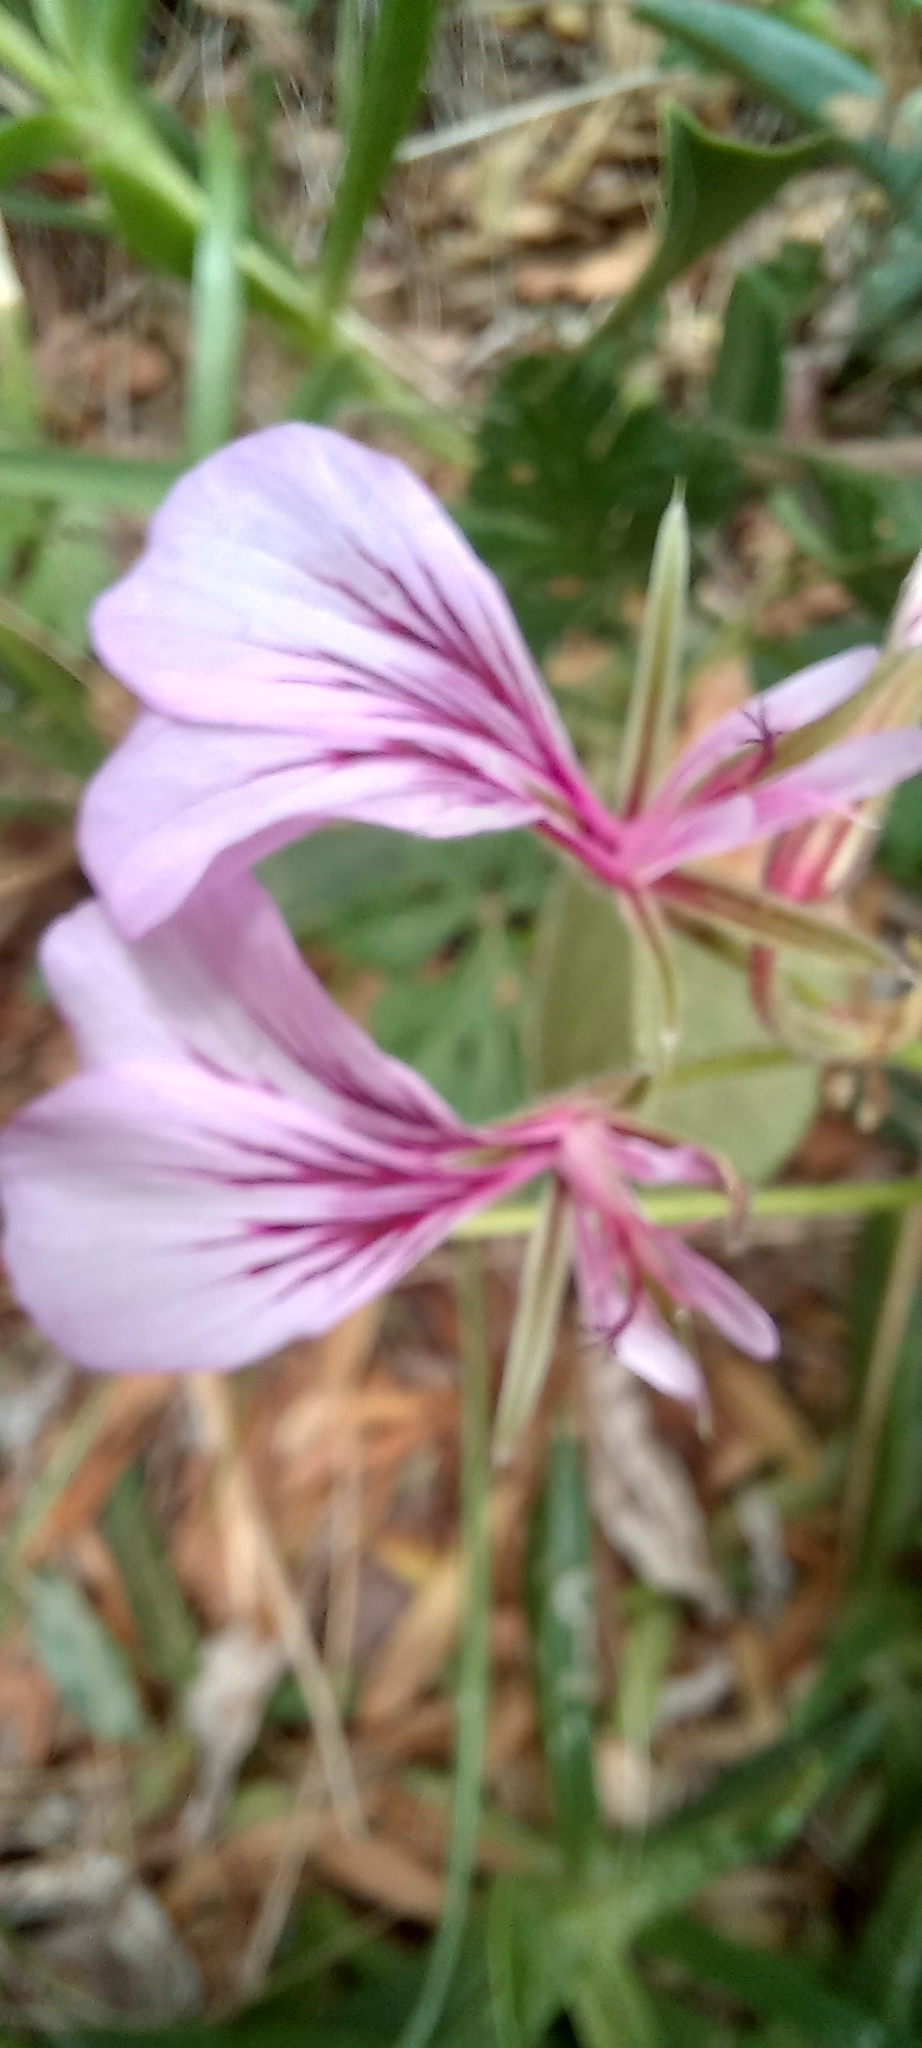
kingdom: Plantae
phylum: Tracheophyta
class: Magnoliopsida
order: Geraniales
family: Geraniaceae
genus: Pelargonium
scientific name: Pelargonium longicaule
